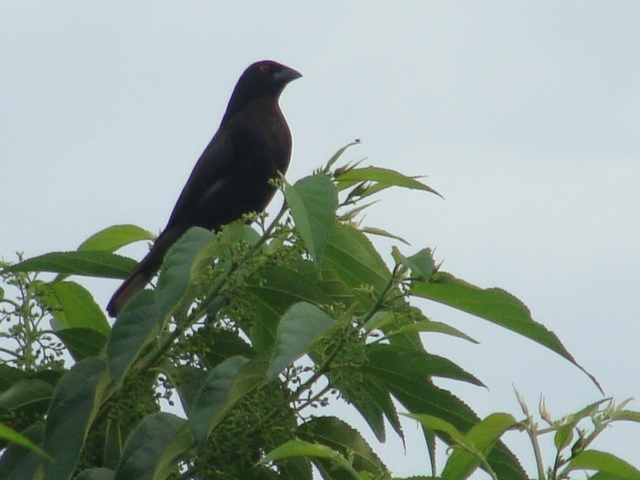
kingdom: Animalia
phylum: Chordata
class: Aves
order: Passeriformes
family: Icteridae
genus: Molothrus
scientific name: Molothrus aeneus
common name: Bronzed cowbird
